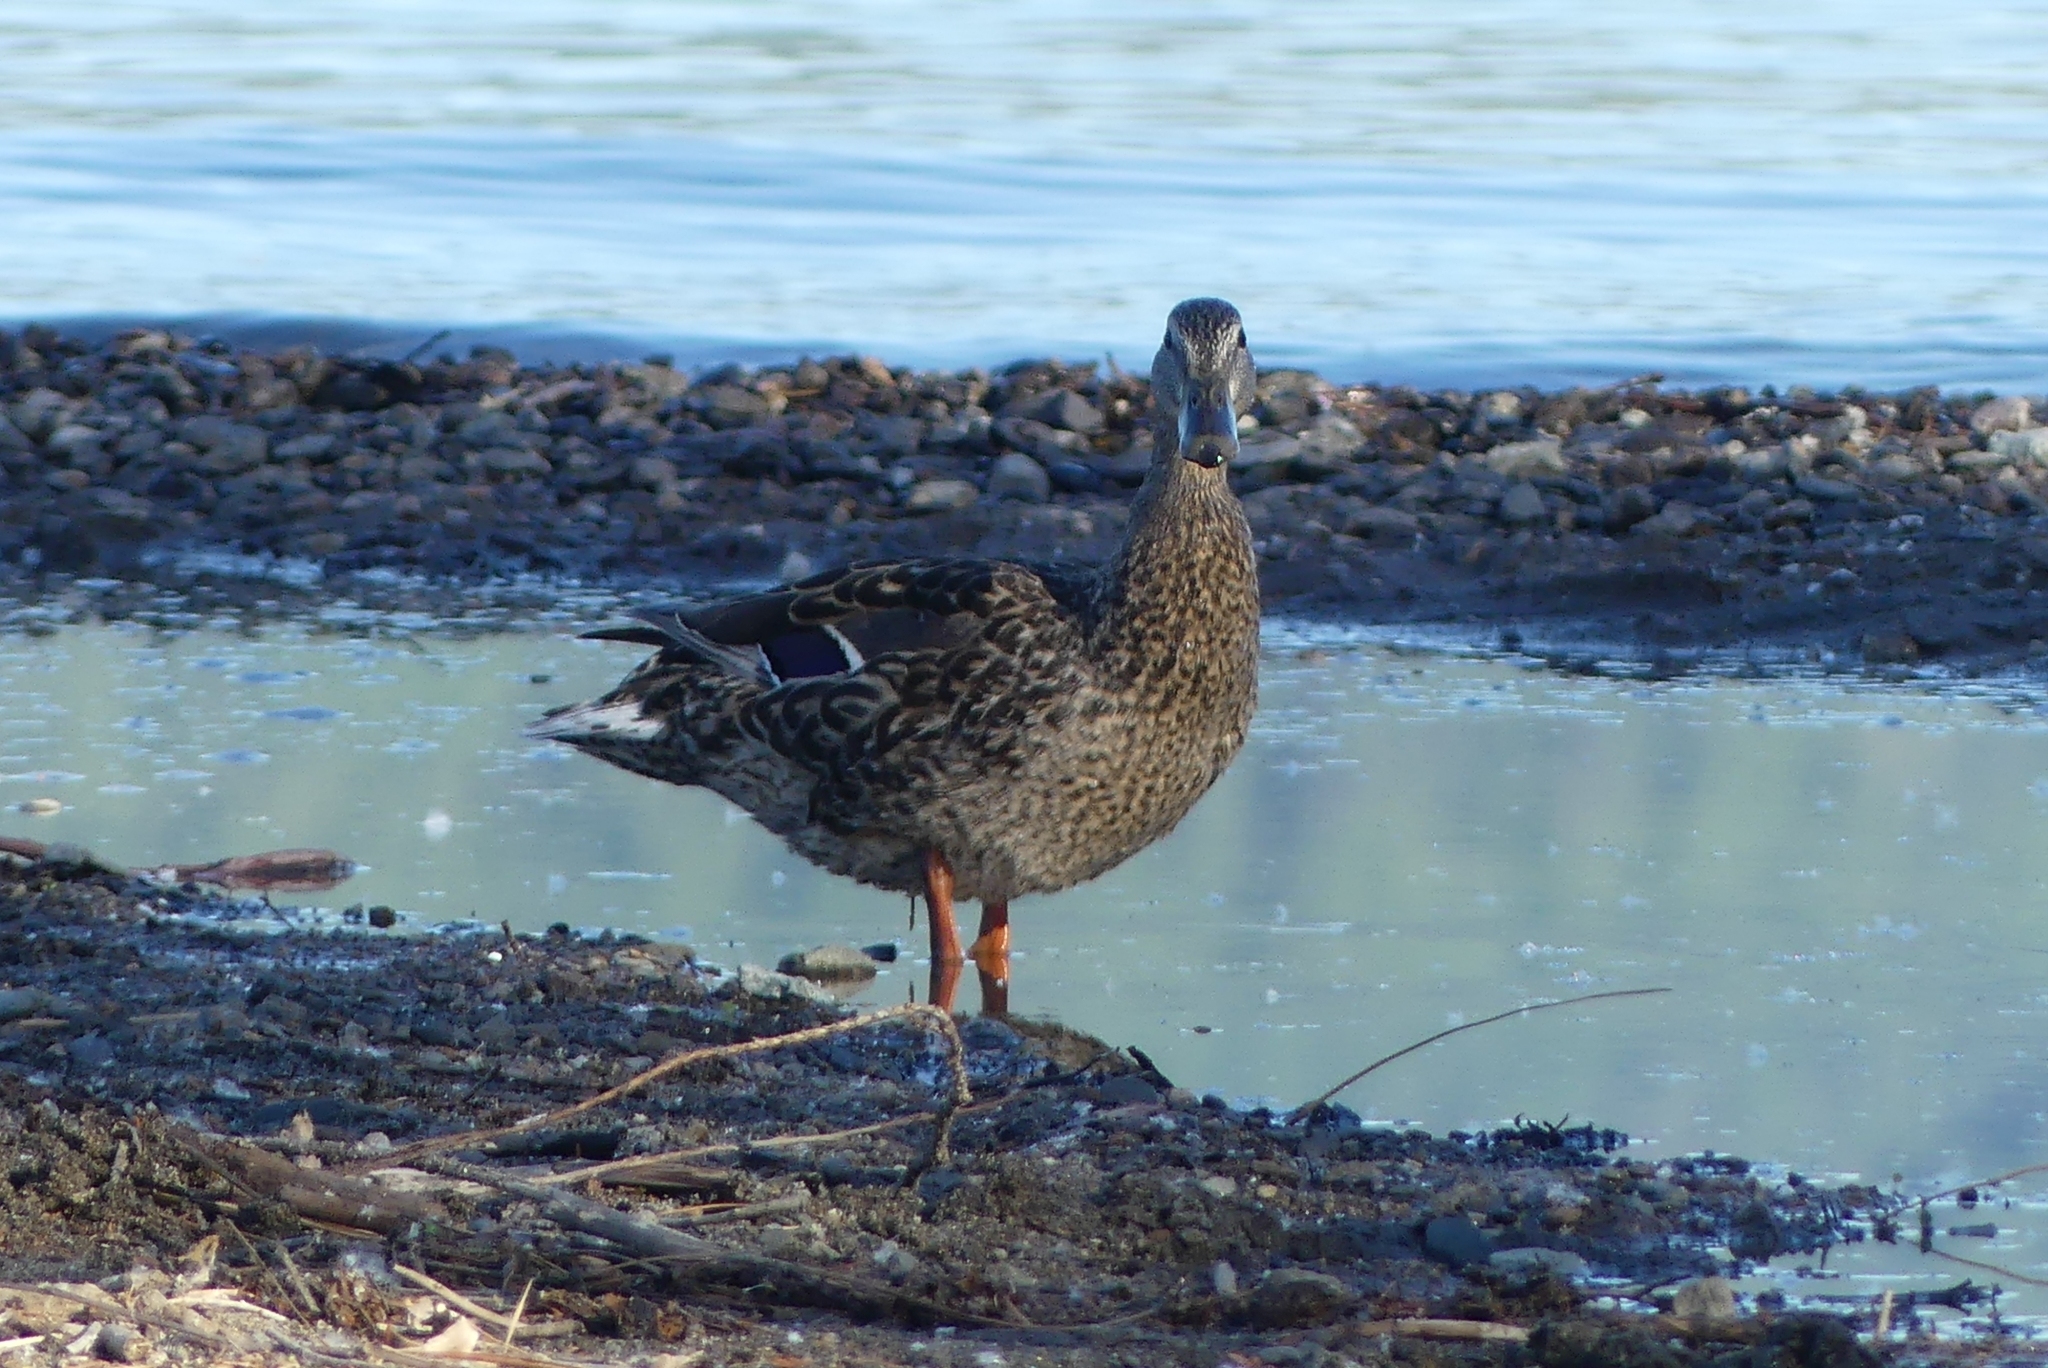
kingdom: Animalia
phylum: Chordata
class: Aves
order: Anseriformes
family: Anatidae
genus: Anas
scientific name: Anas platyrhynchos
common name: Mallard
